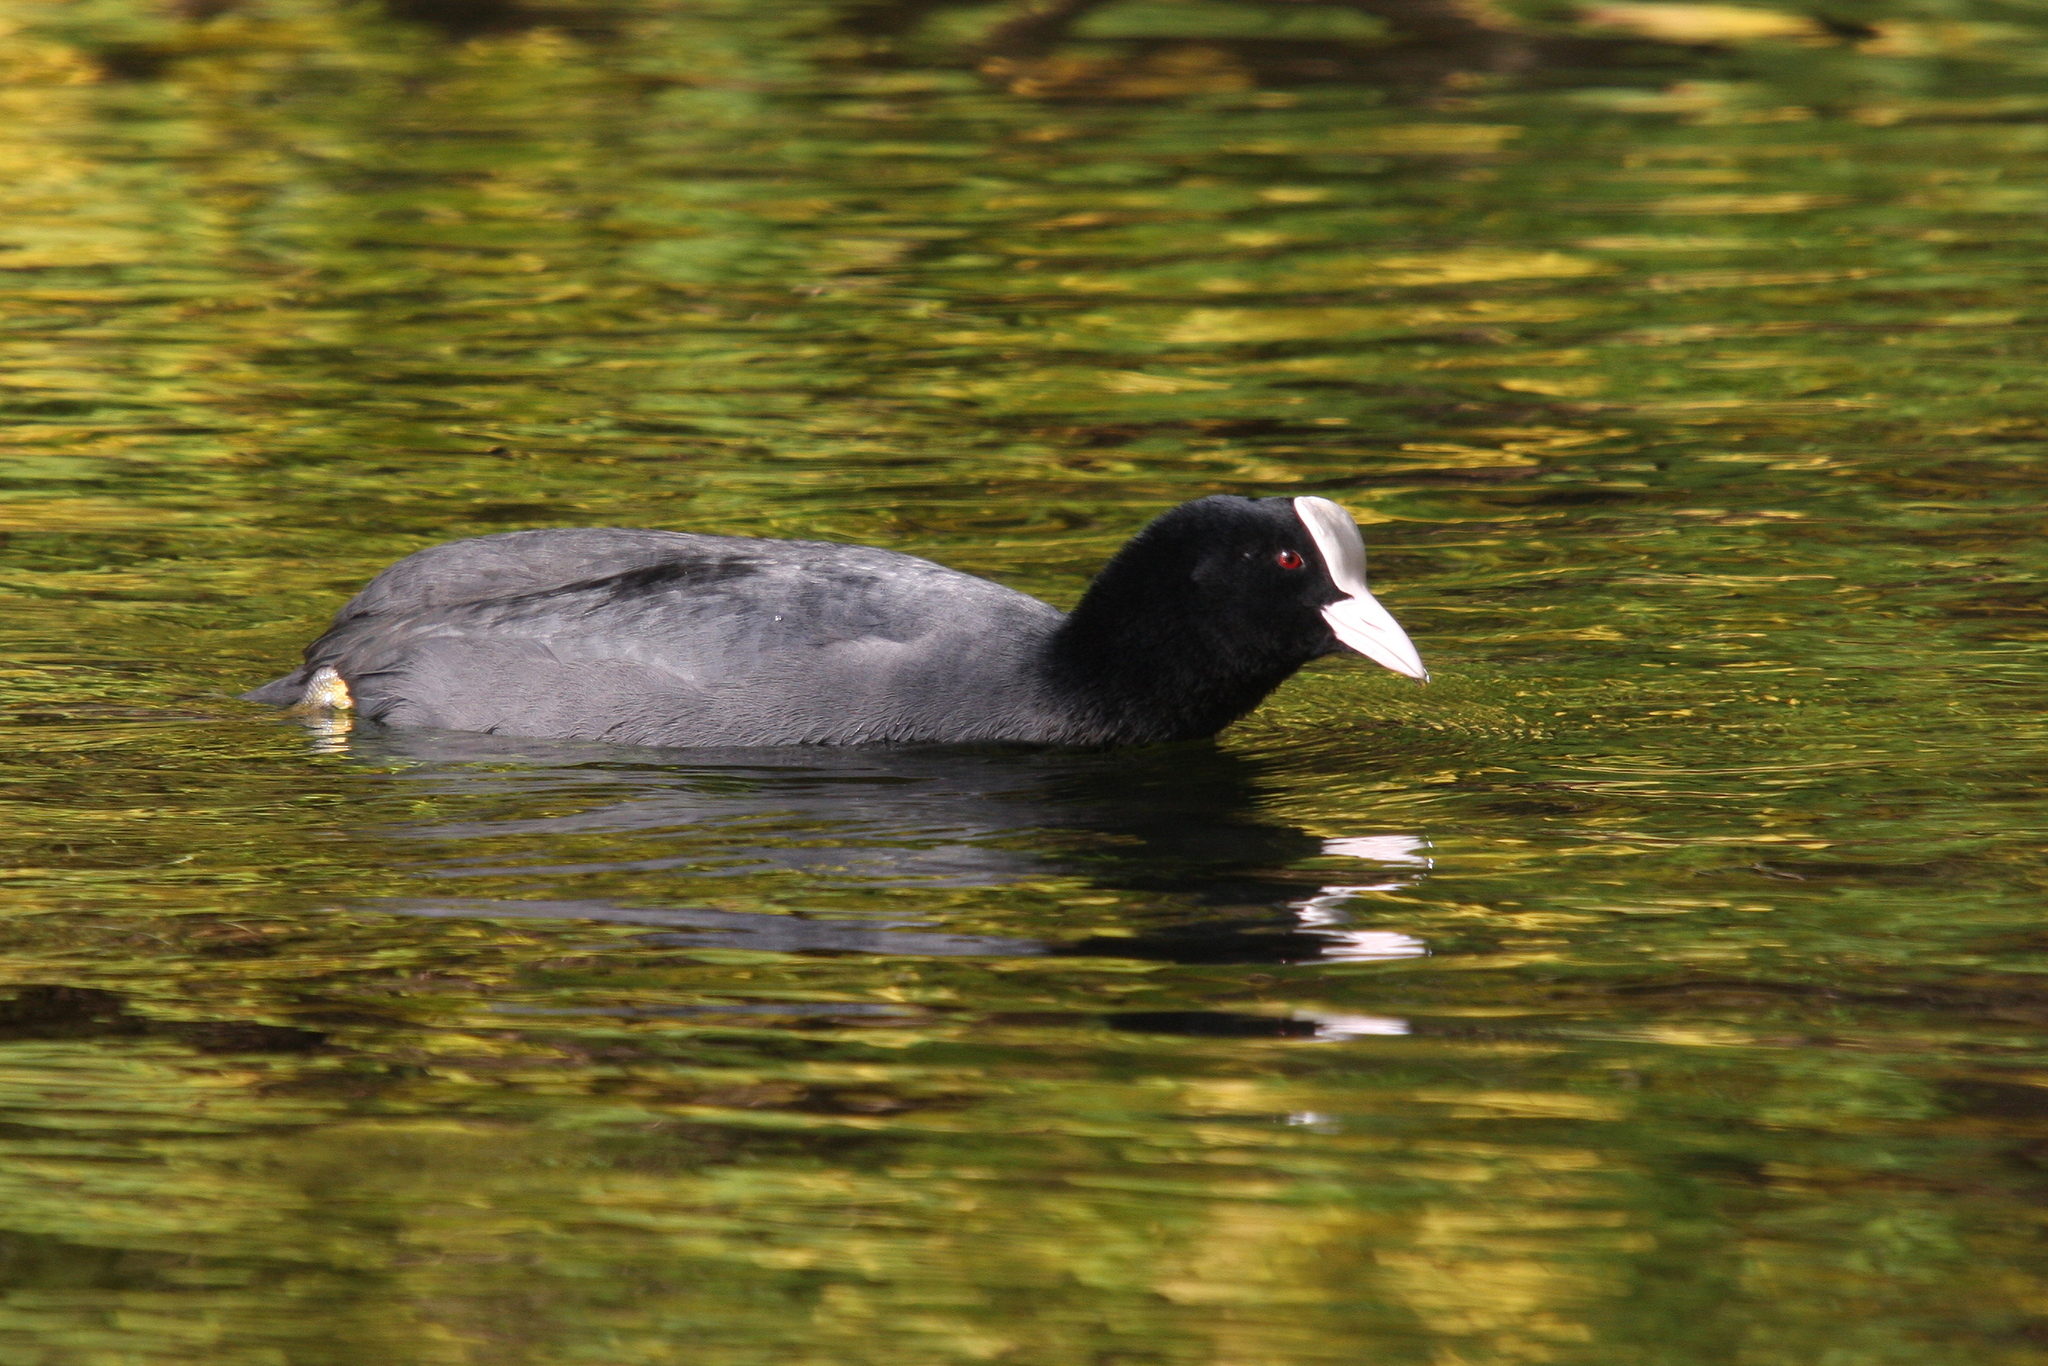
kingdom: Animalia
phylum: Chordata
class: Aves
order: Gruiformes
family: Rallidae
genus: Fulica
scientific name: Fulica atra
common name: Eurasian coot
